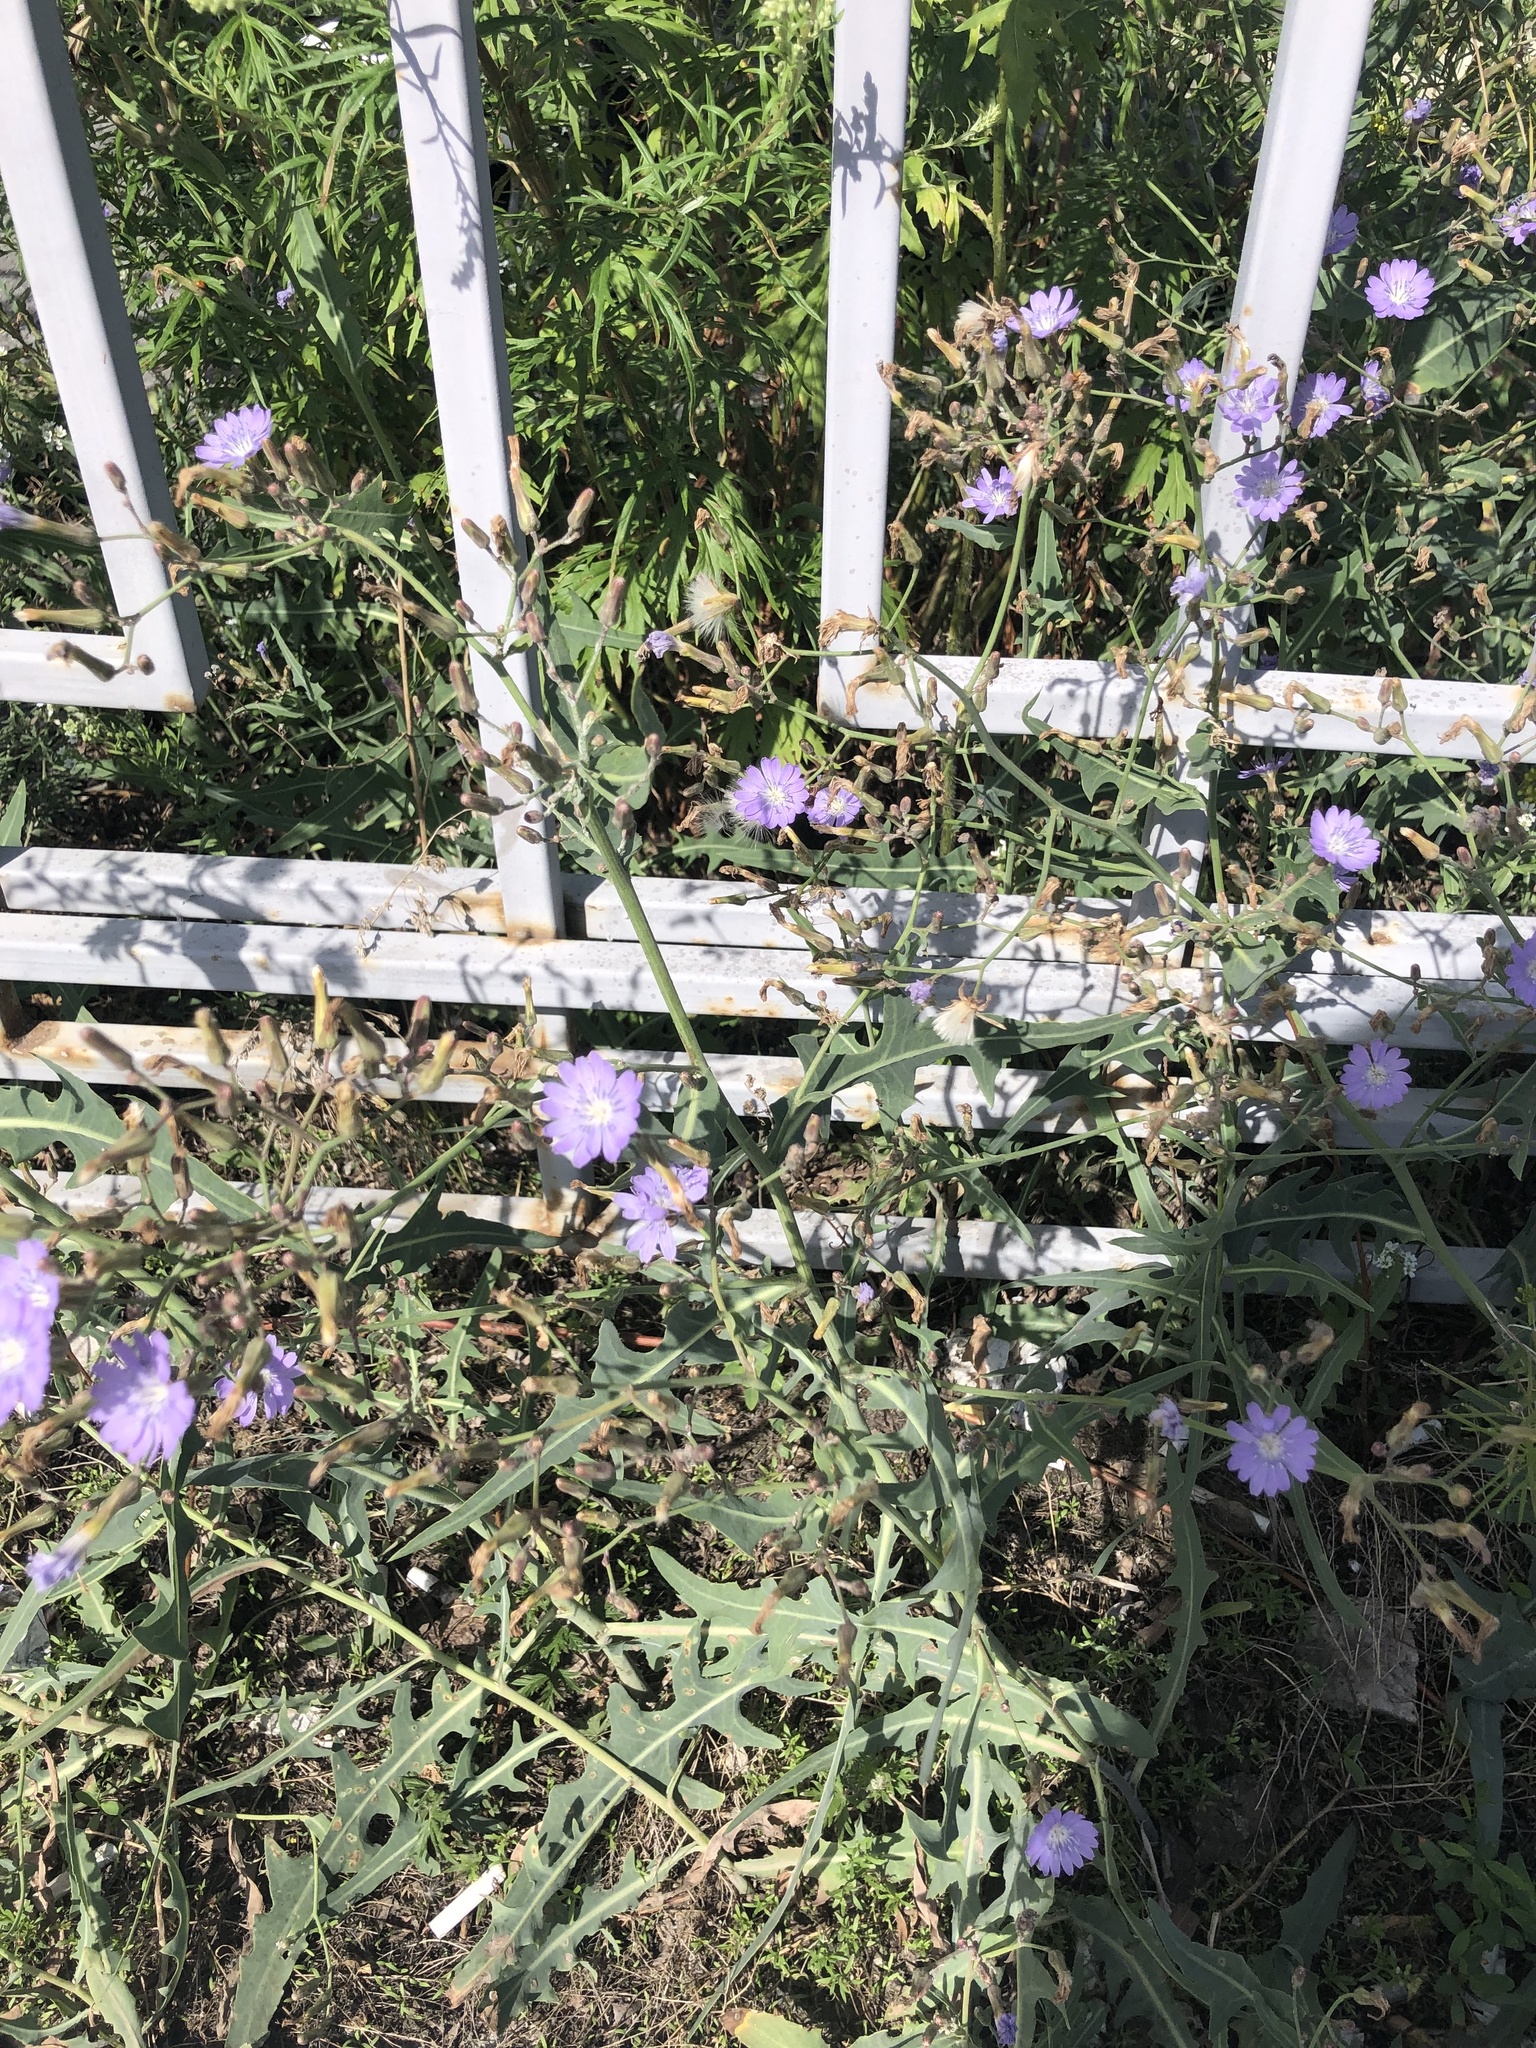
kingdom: Plantae
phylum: Tracheophyta
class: Magnoliopsida
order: Asterales
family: Asteraceae
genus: Lactuca
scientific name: Lactuca tatarica
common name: Blue lettuce
